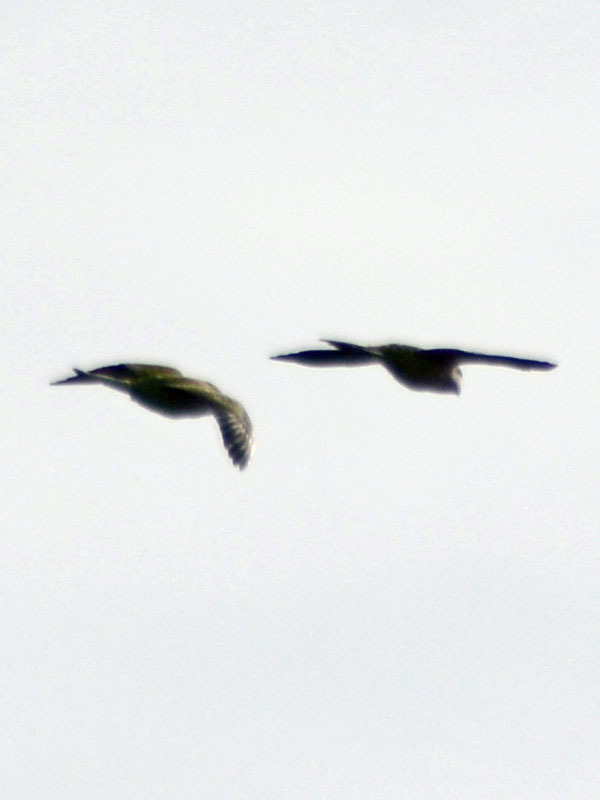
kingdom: Animalia
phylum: Chordata
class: Aves
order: Psittaciformes
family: Psittacidae
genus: Myiopsitta
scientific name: Myiopsitta monachus
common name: Monk parakeet
